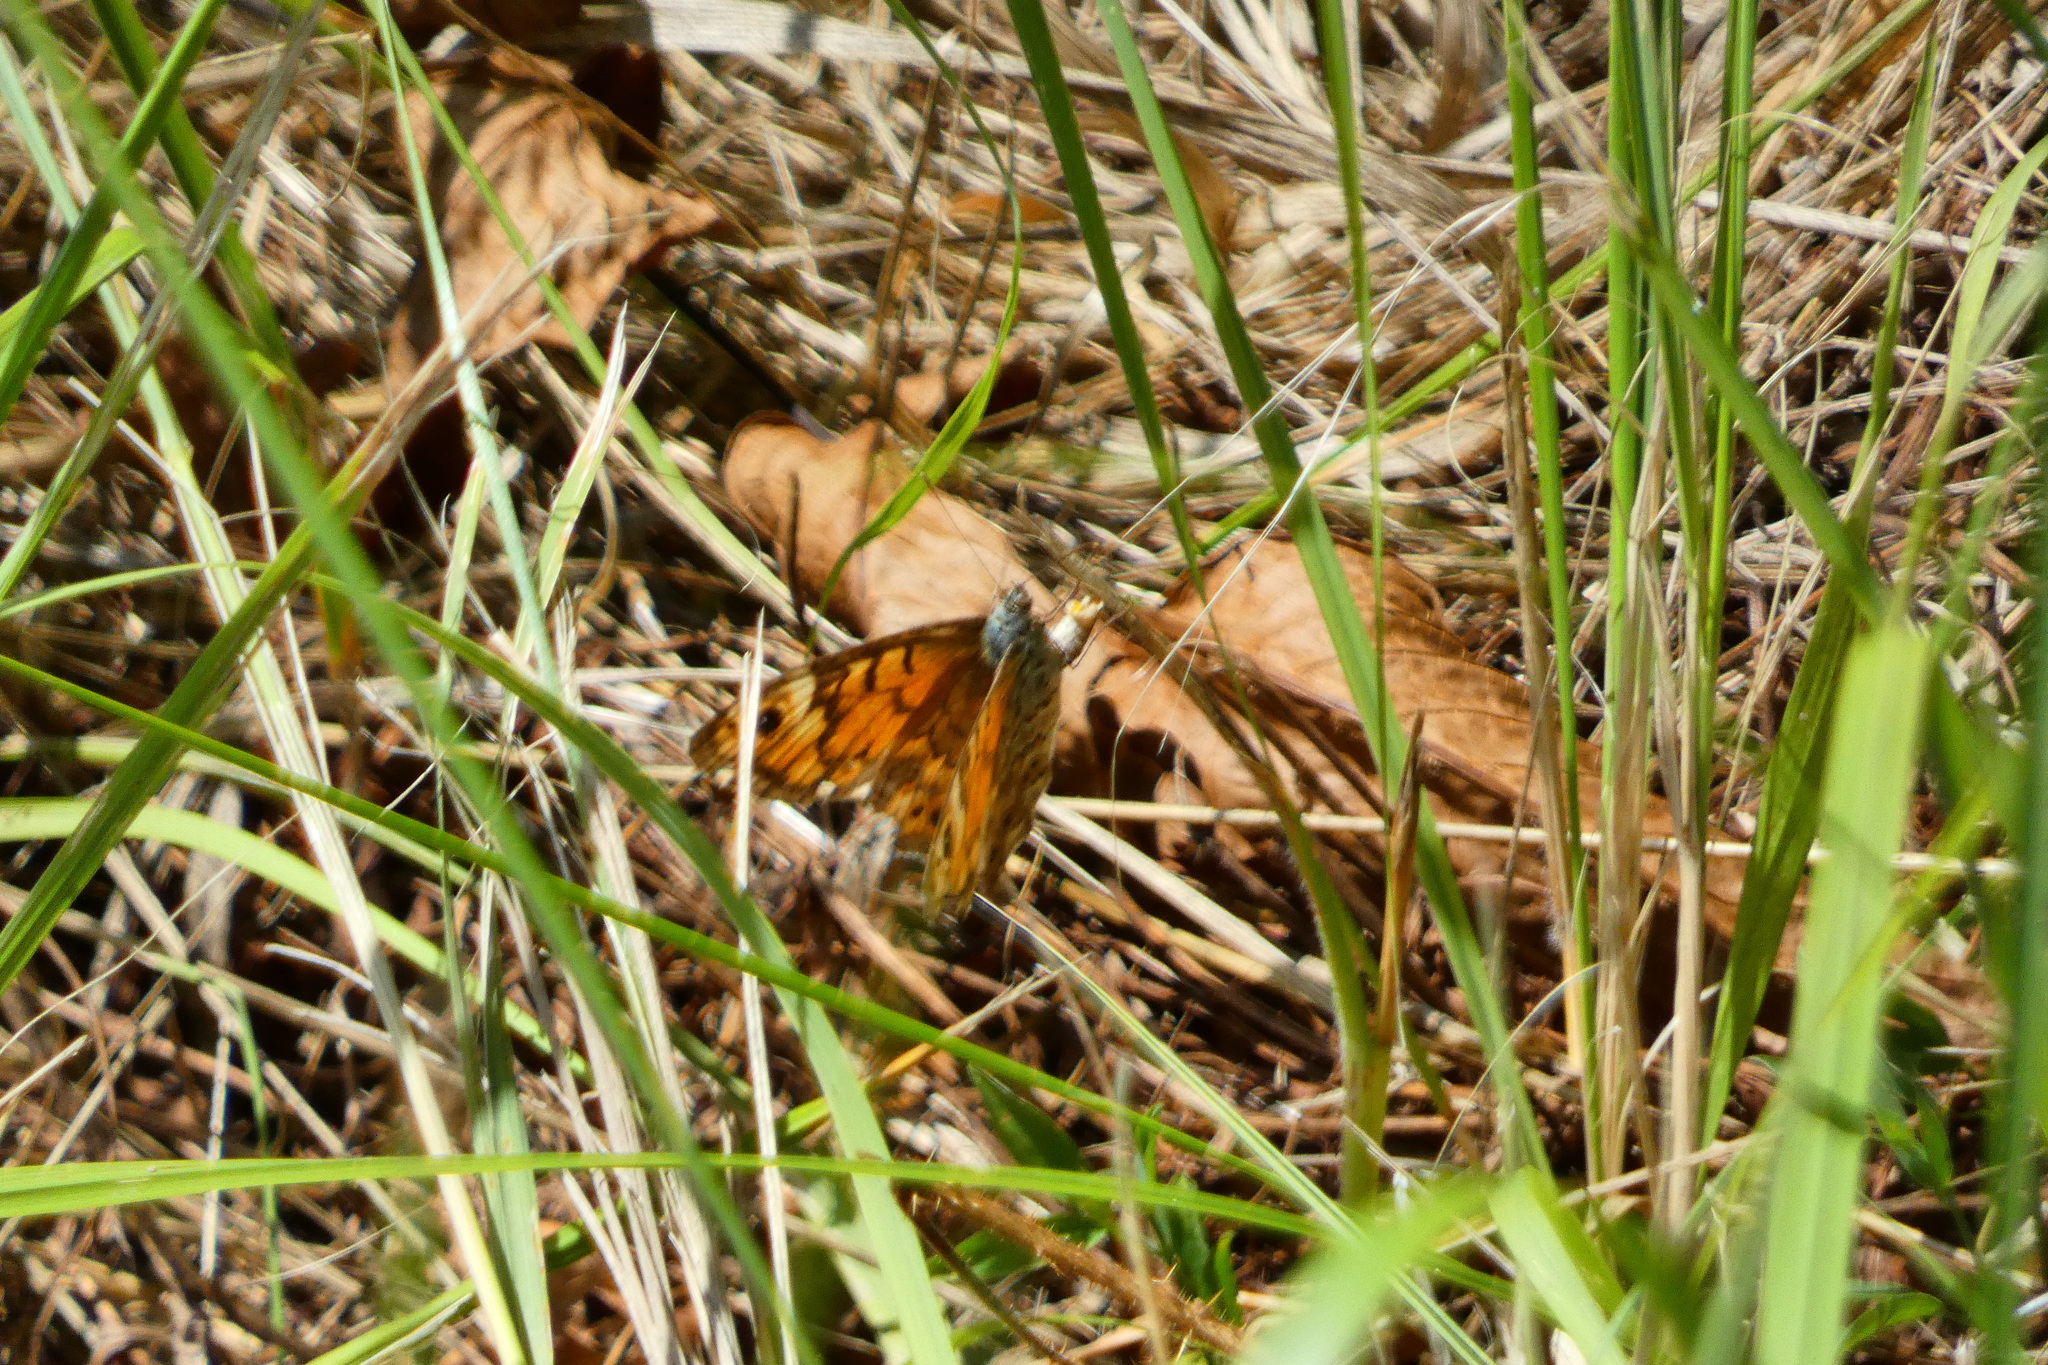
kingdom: Animalia
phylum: Arthropoda
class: Insecta
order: Lepidoptera
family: Nymphalidae
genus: Pararge
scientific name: Pararge Lasiommata megera
